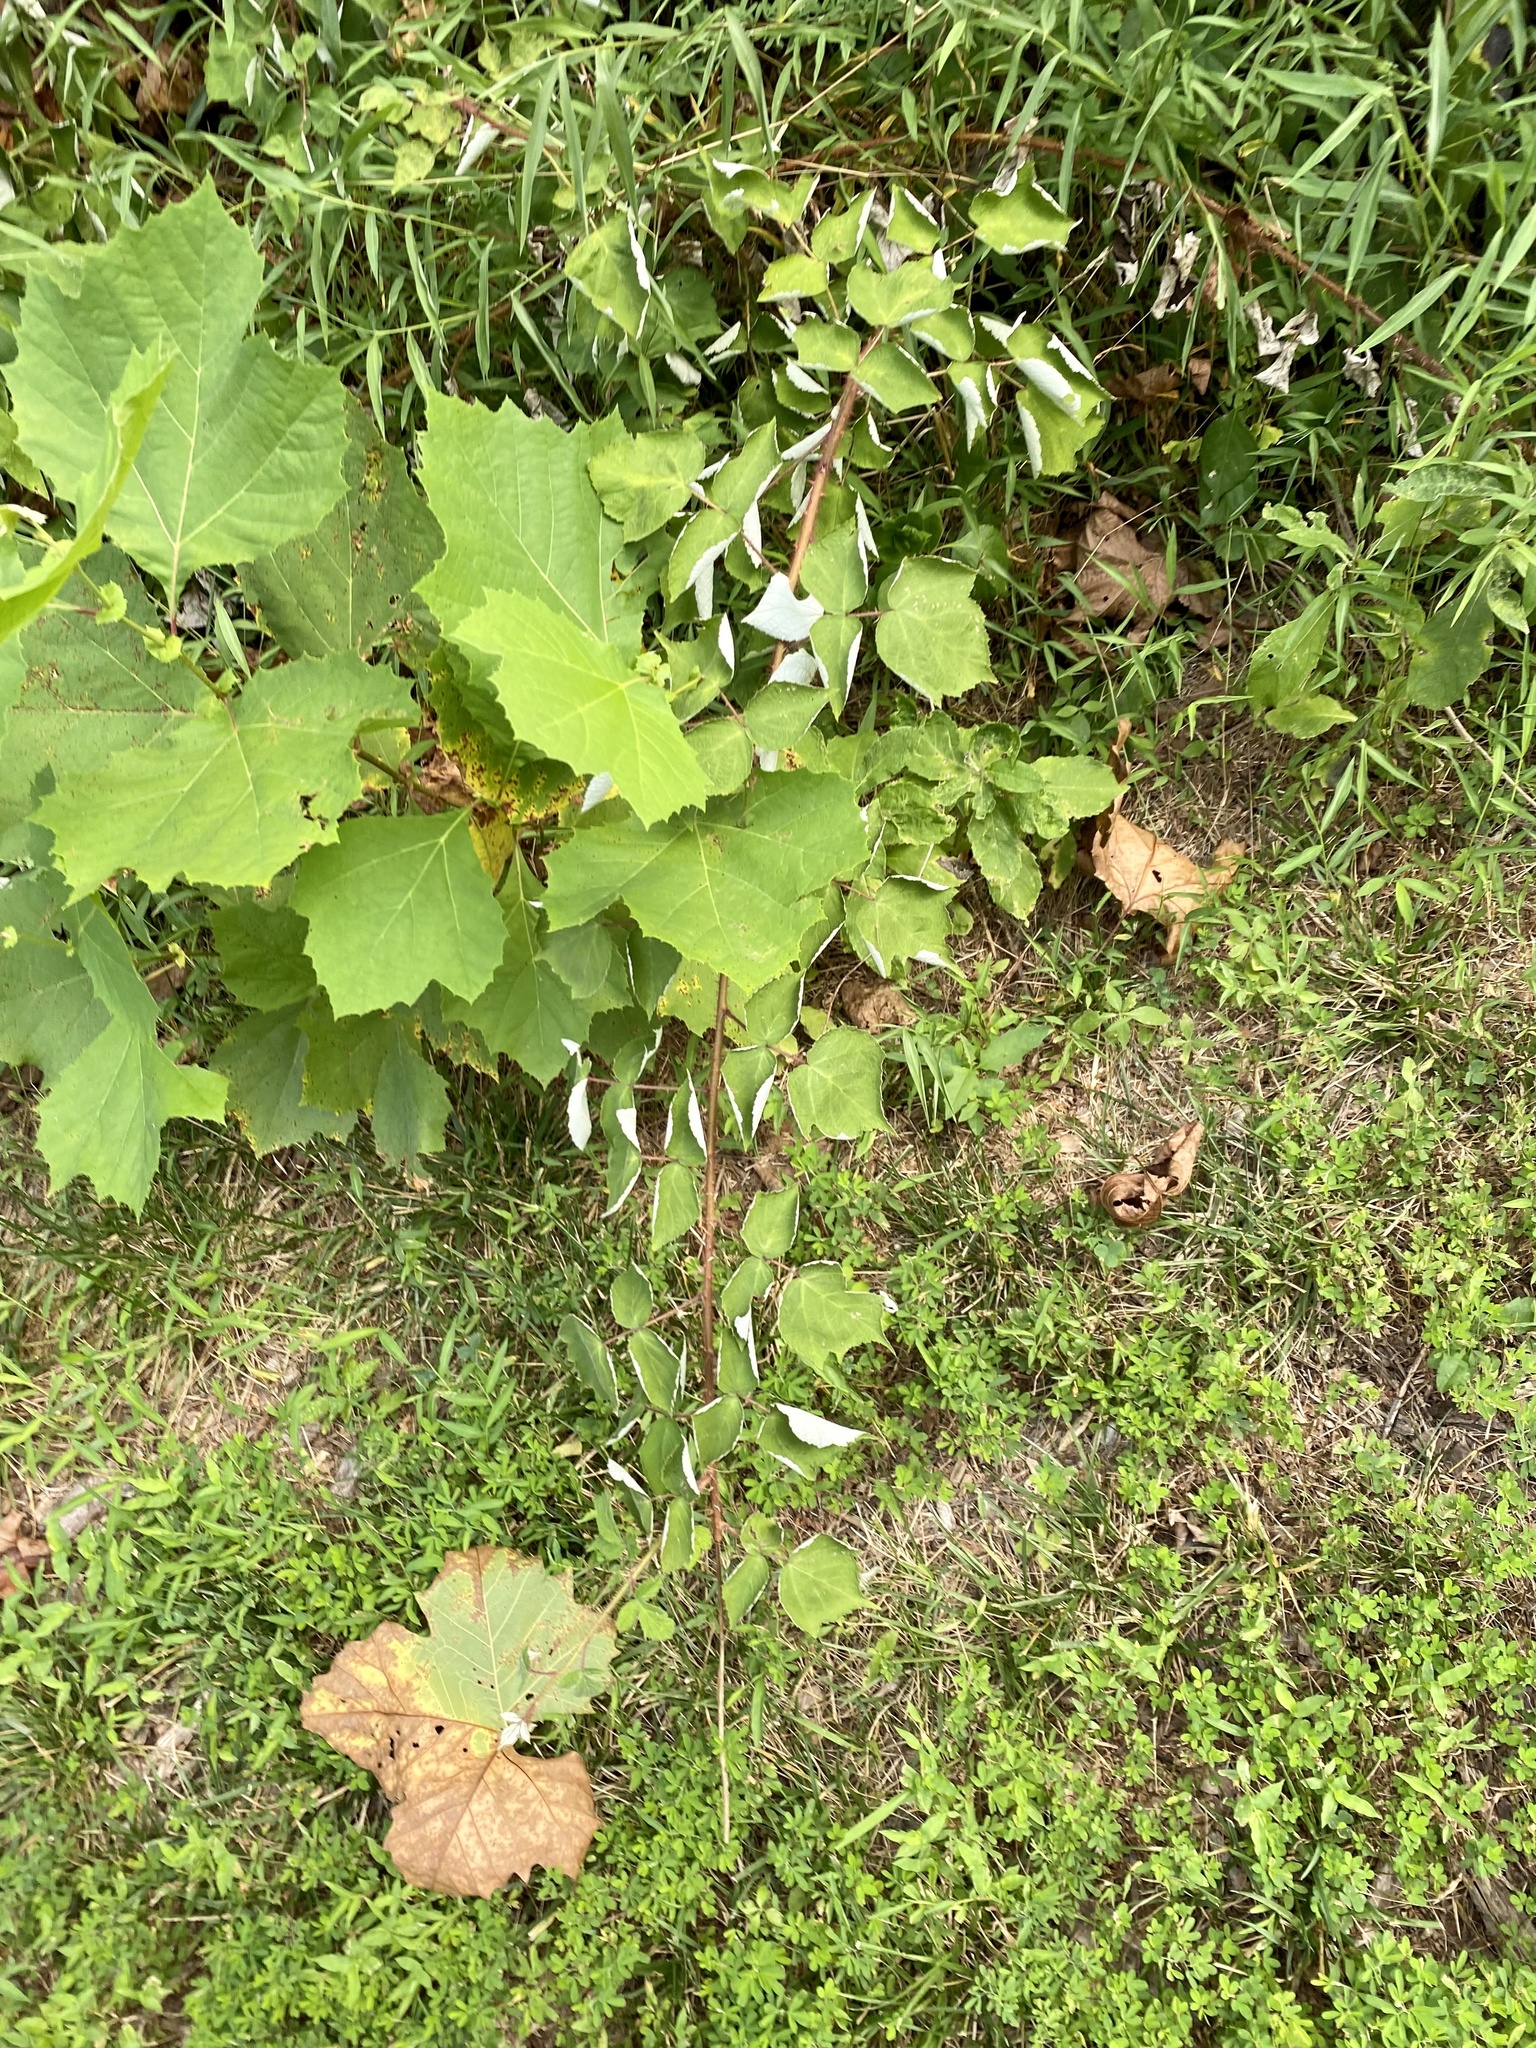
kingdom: Plantae
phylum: Tracheophyta
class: Magnoliopsida
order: Rosales
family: Rosaceae
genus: Rubus
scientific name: Rubus phoenicolasius
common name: Japanese wineberry
